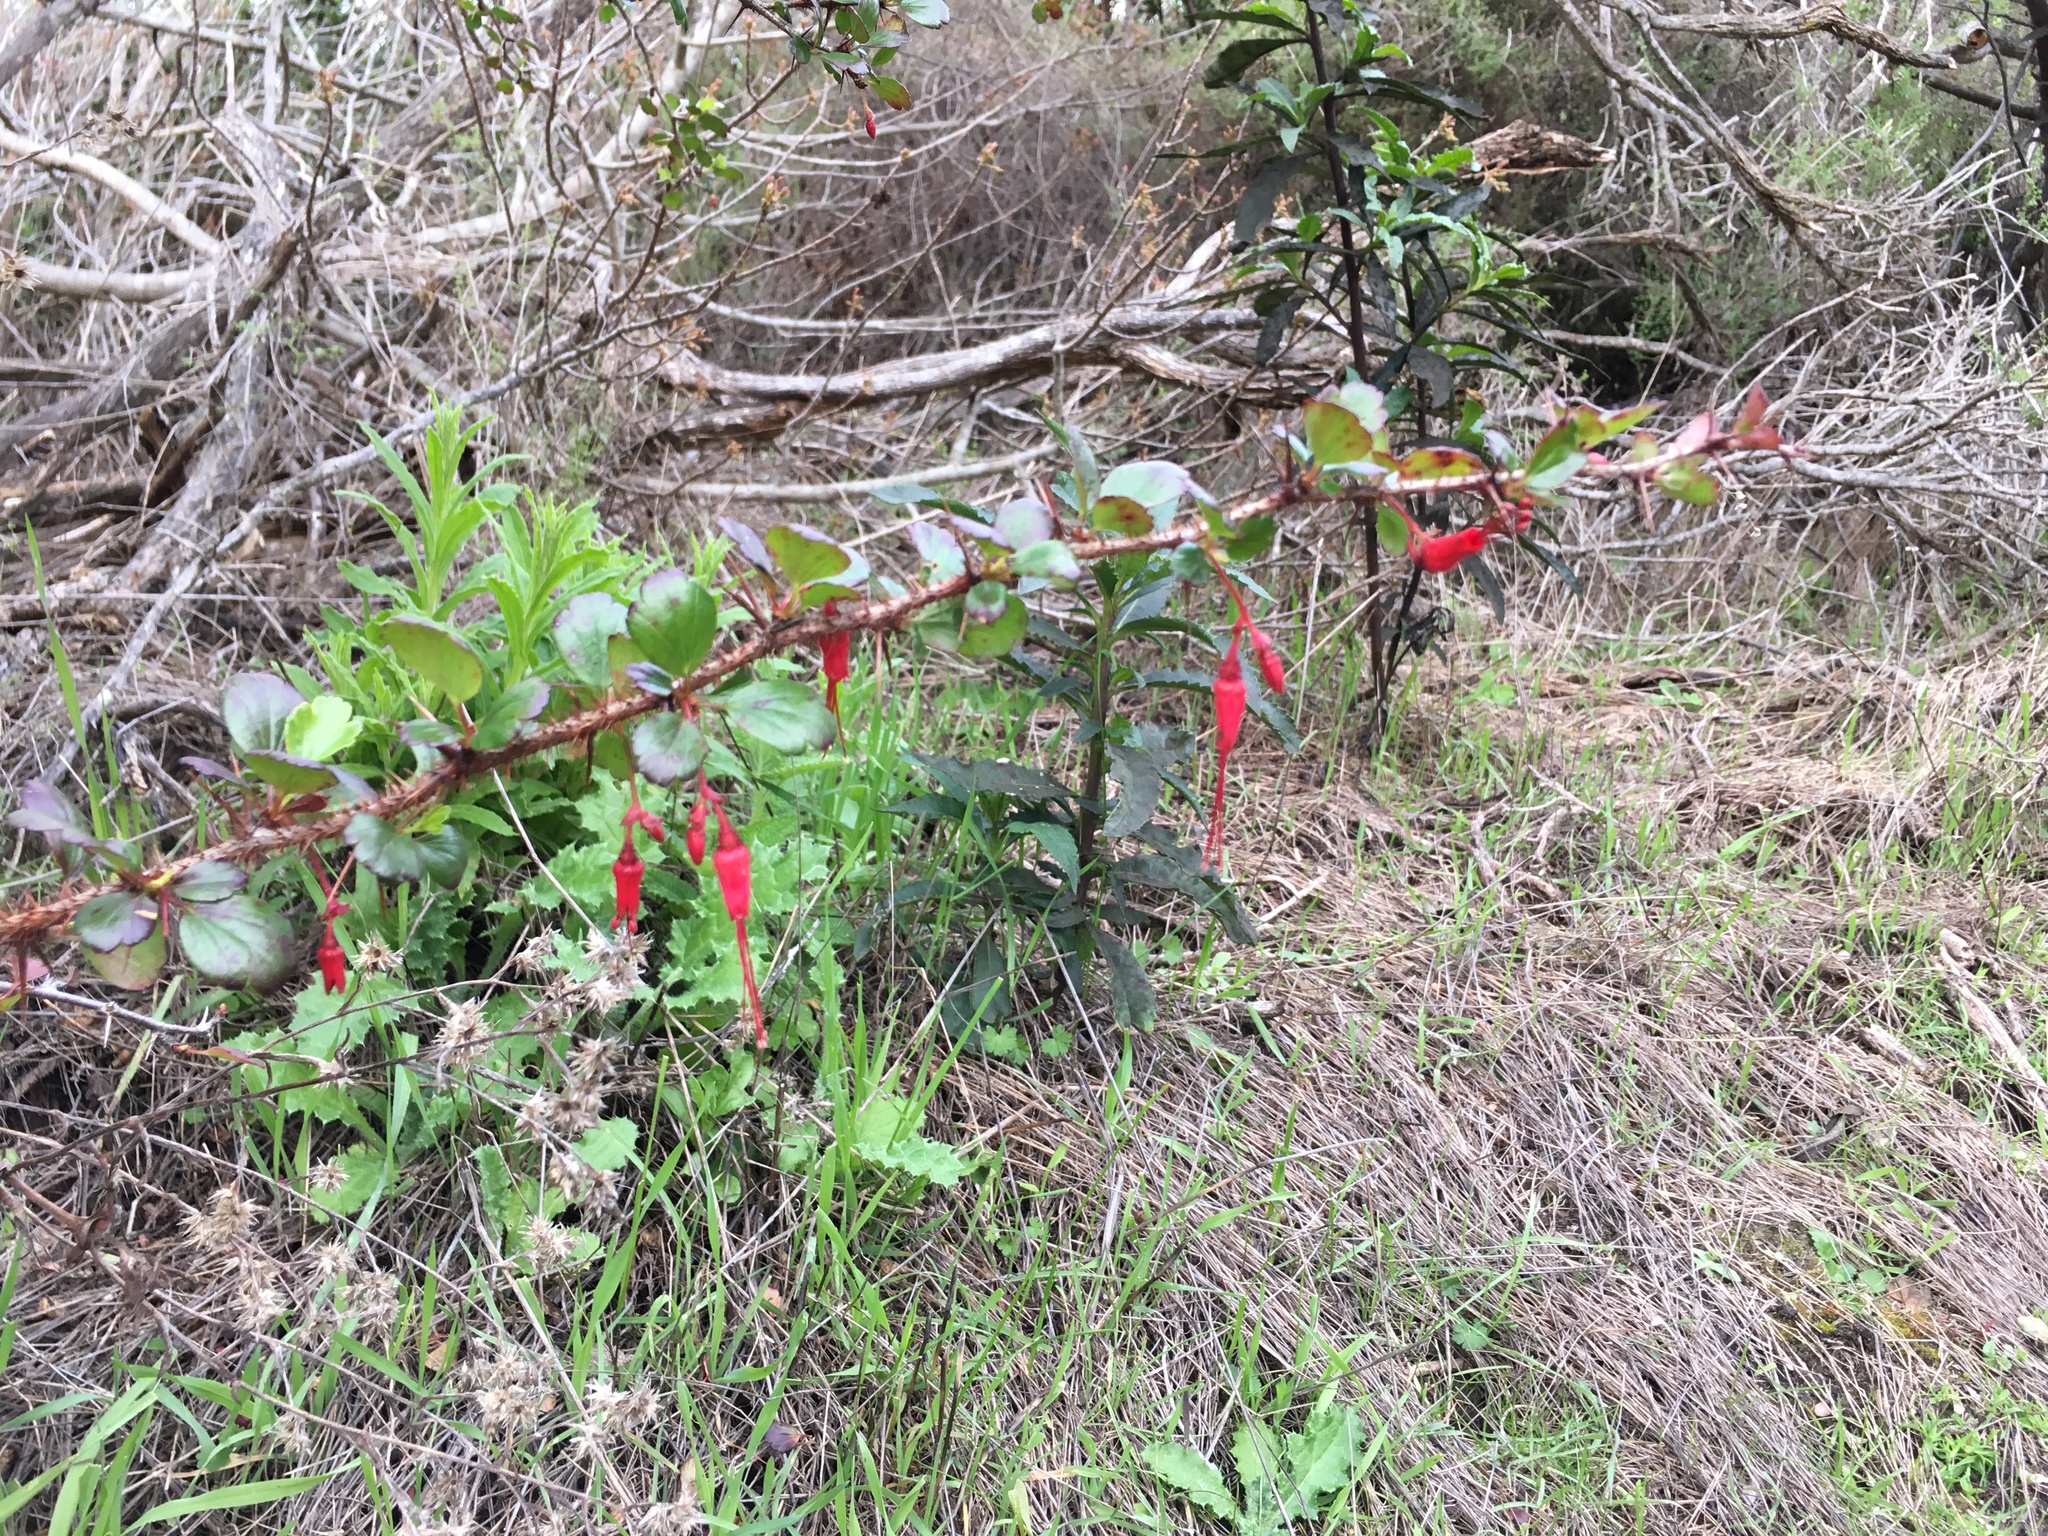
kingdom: Plantae
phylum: Tracheophyta
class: Magnoliopsida
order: Saxifragales
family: Grossulariaceae
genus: Ribes
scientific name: Ribes speciosum
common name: Fuchsia-flower gooseberry
